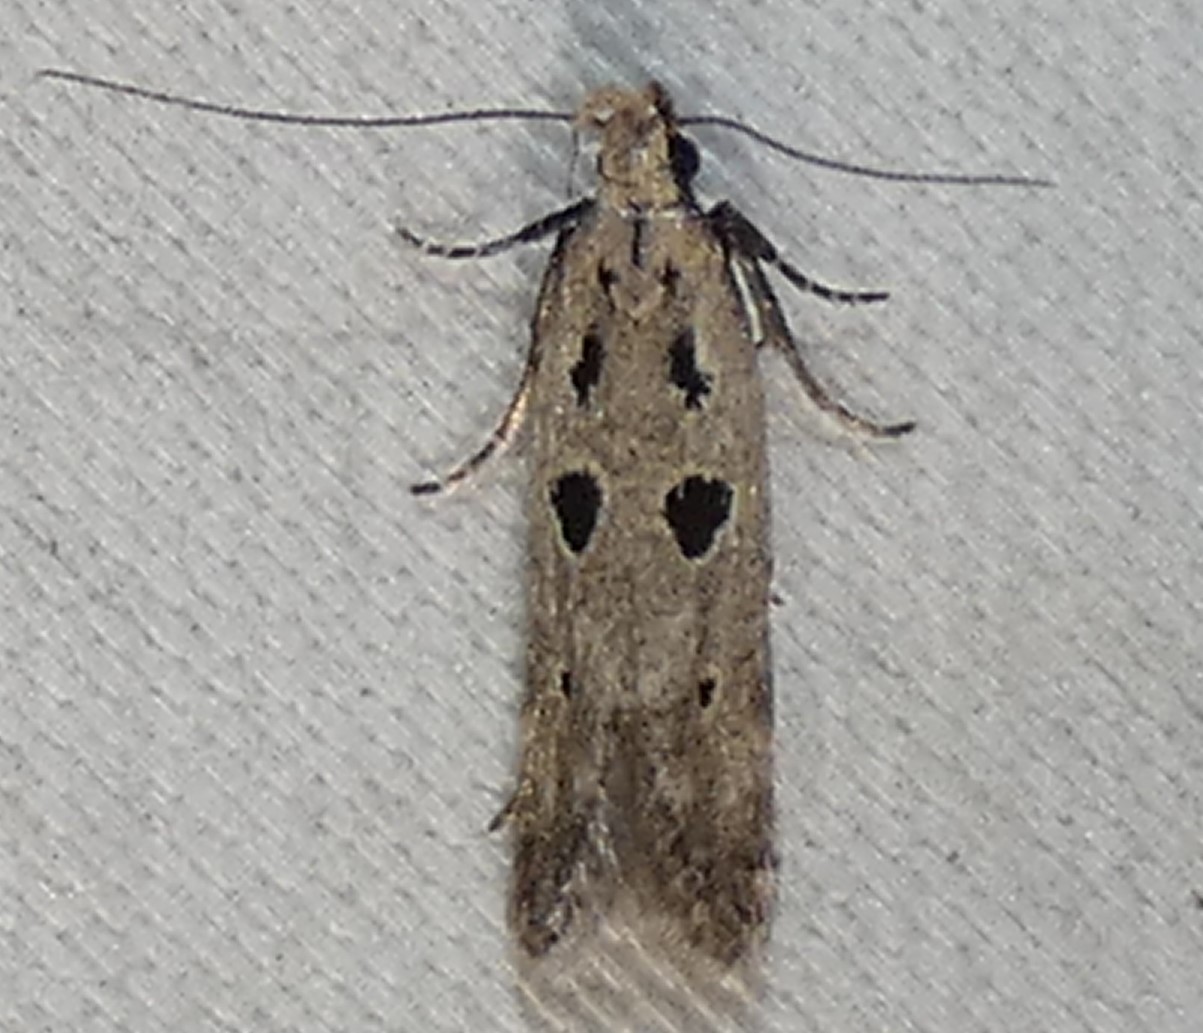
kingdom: Animalia
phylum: Arthropoda
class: Insecta
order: Lepidoptera
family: Gelechiidae
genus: Deltophora
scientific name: Deltophora sella
